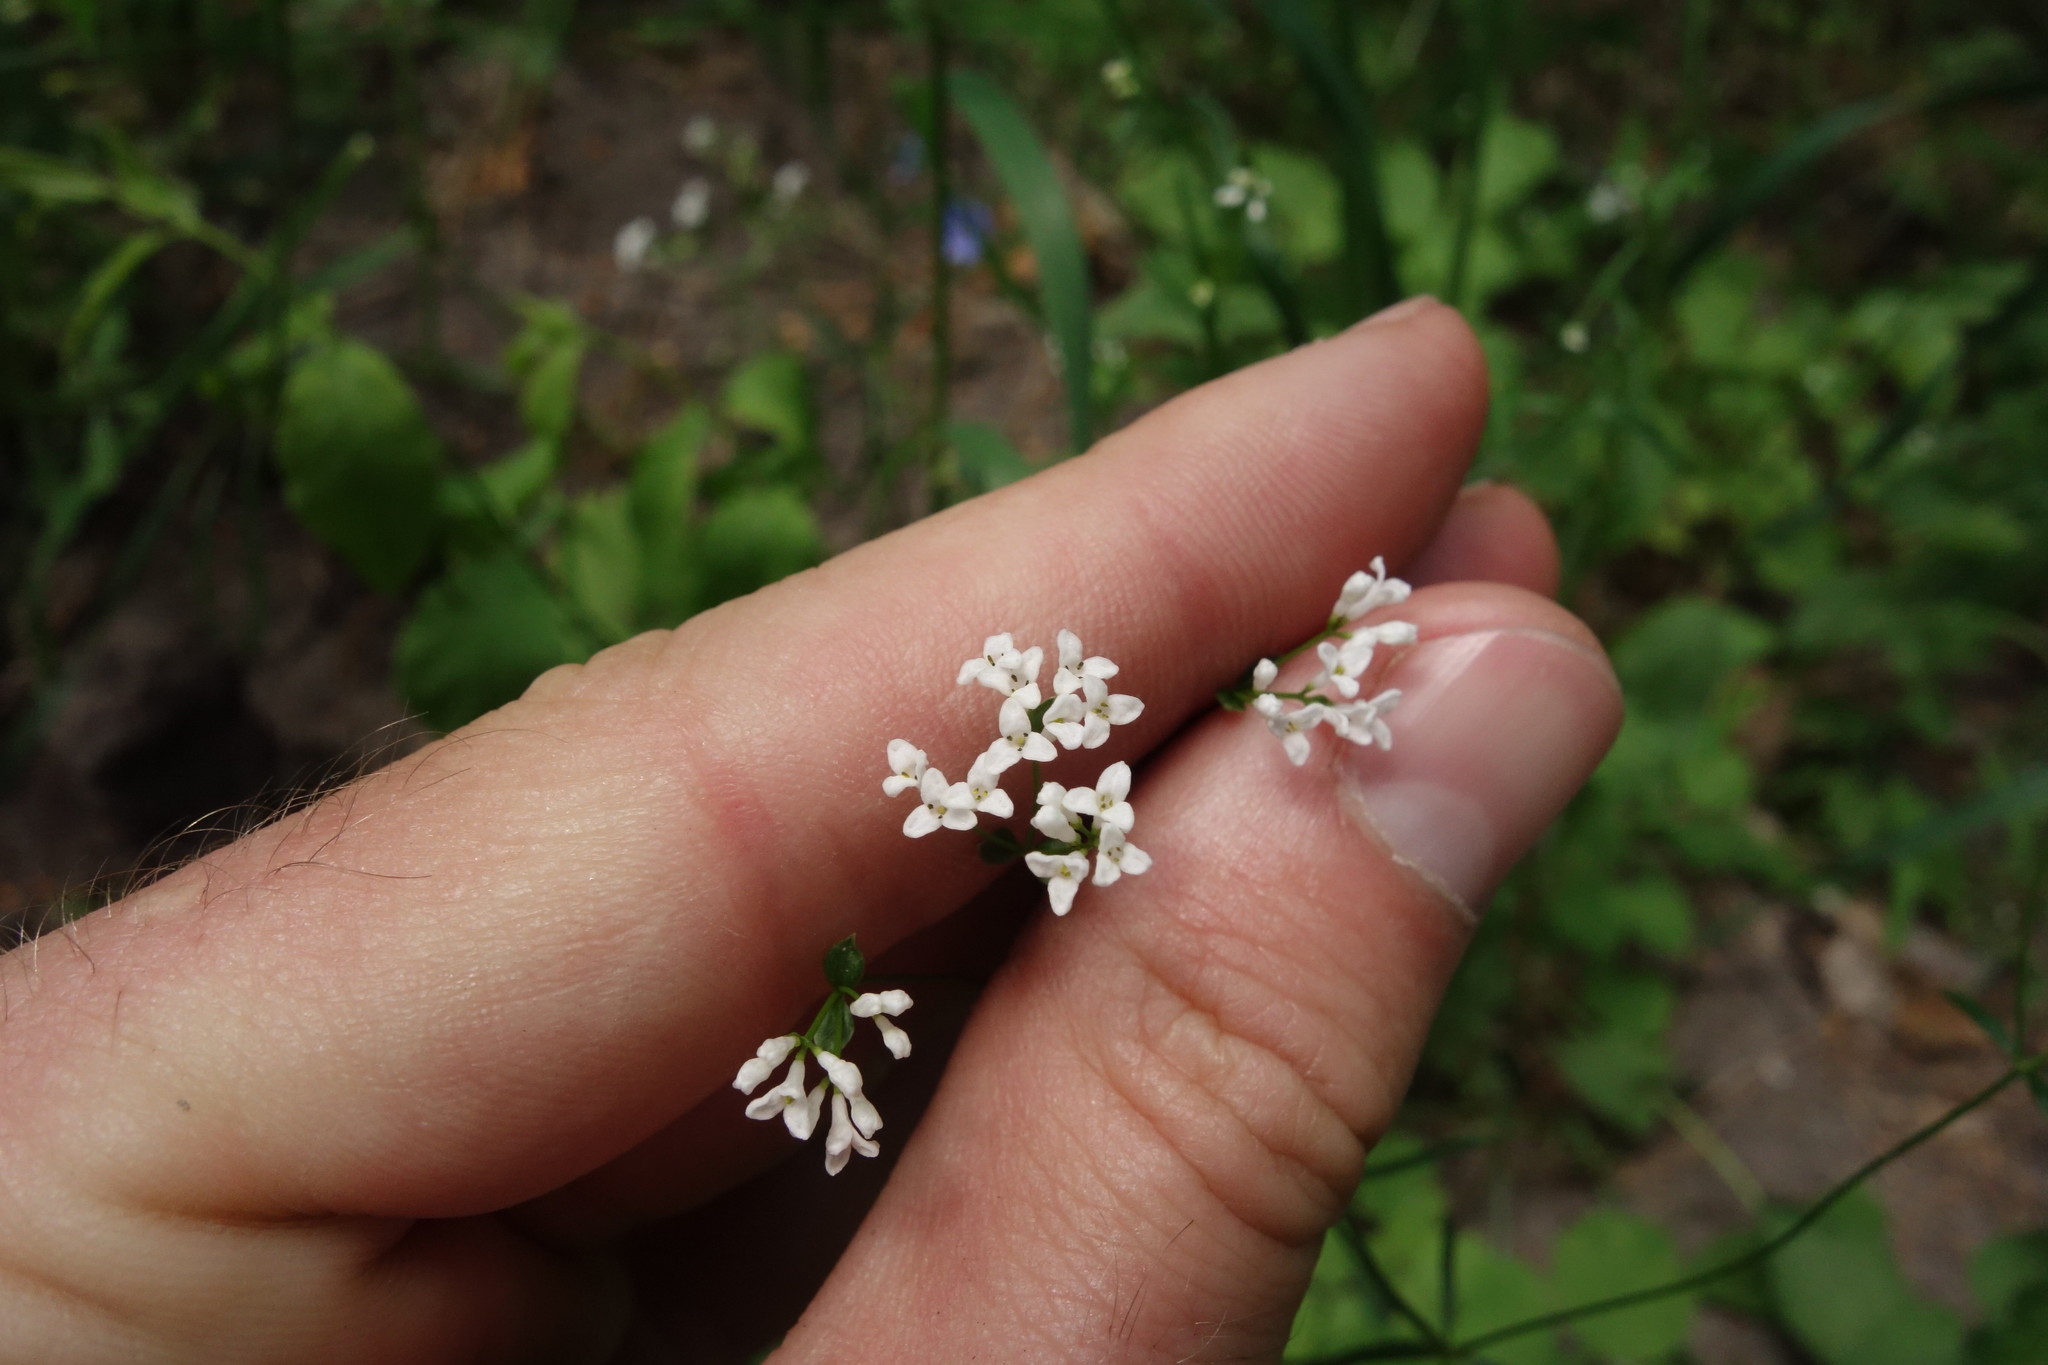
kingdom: Plantae
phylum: Tracheophyta
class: Magnoliopsida
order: Gentianales
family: Rubiaceae
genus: Asperula
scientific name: Asperula tinctoria
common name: Dyer's woodruff
